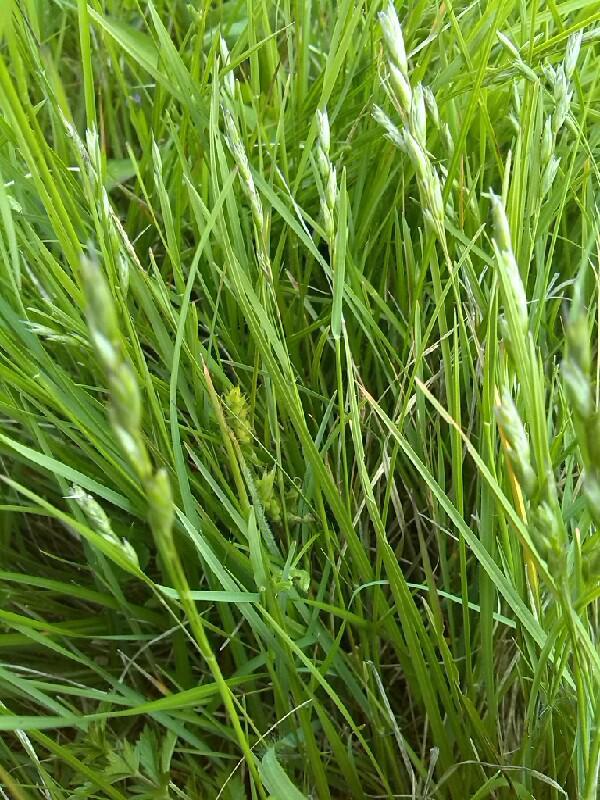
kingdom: Plantae
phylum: Tracheophyta
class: Liliopsida
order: Poales
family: Poaceae
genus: Danthonia
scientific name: Danthonia decumbens
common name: Common heathgrass
